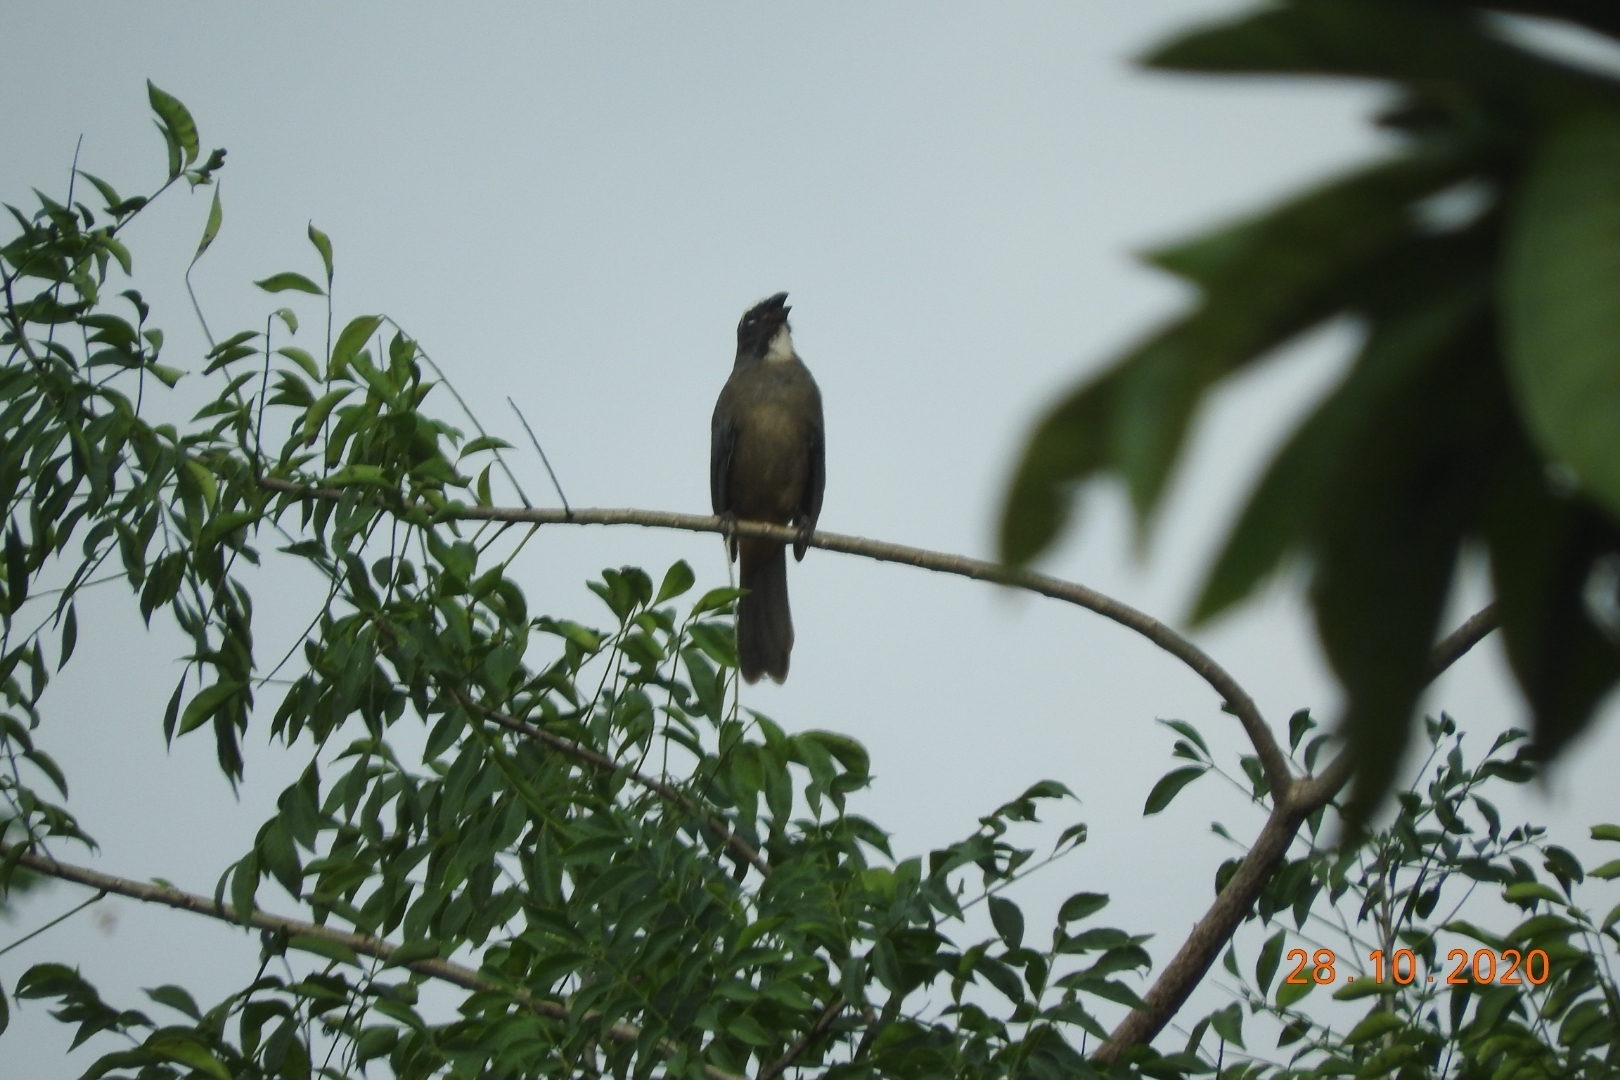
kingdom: Animalia
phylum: Chordata
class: Aves
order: Passeriformes
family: Thraupidae
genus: Saltator
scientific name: Saltator grandis
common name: Cinnamon-bellied saltator
